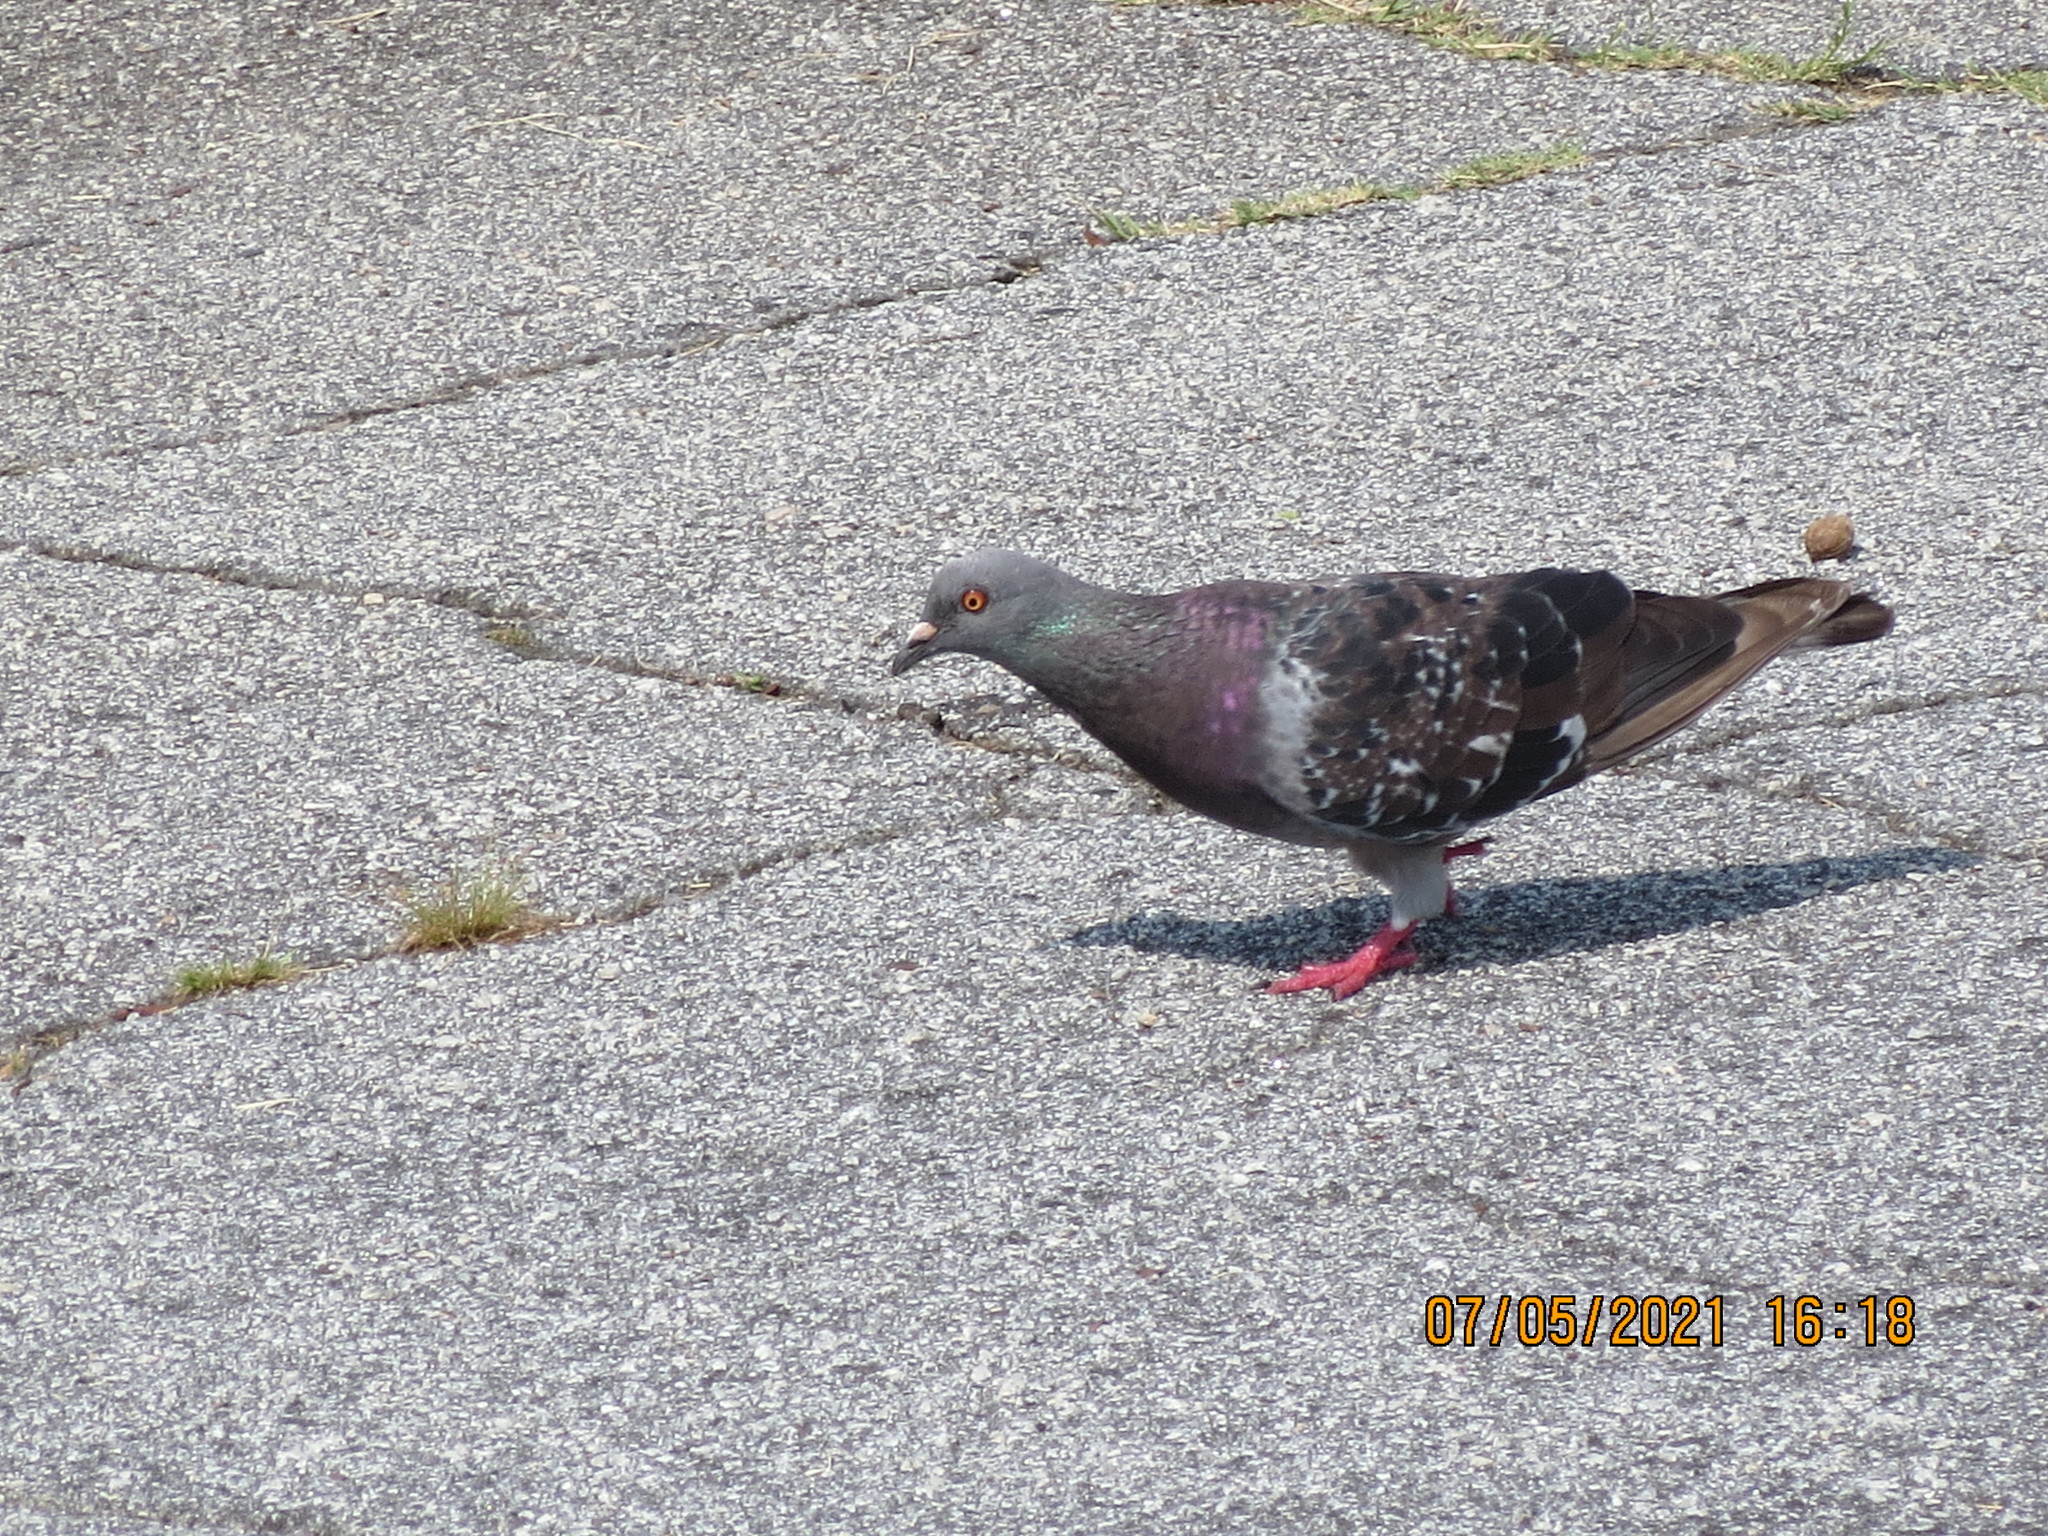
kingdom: Animalia
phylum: Chordata
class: Aves
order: Columbiformes
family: Columbidae
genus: Columba
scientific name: Columba livia
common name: Rock pigeon
